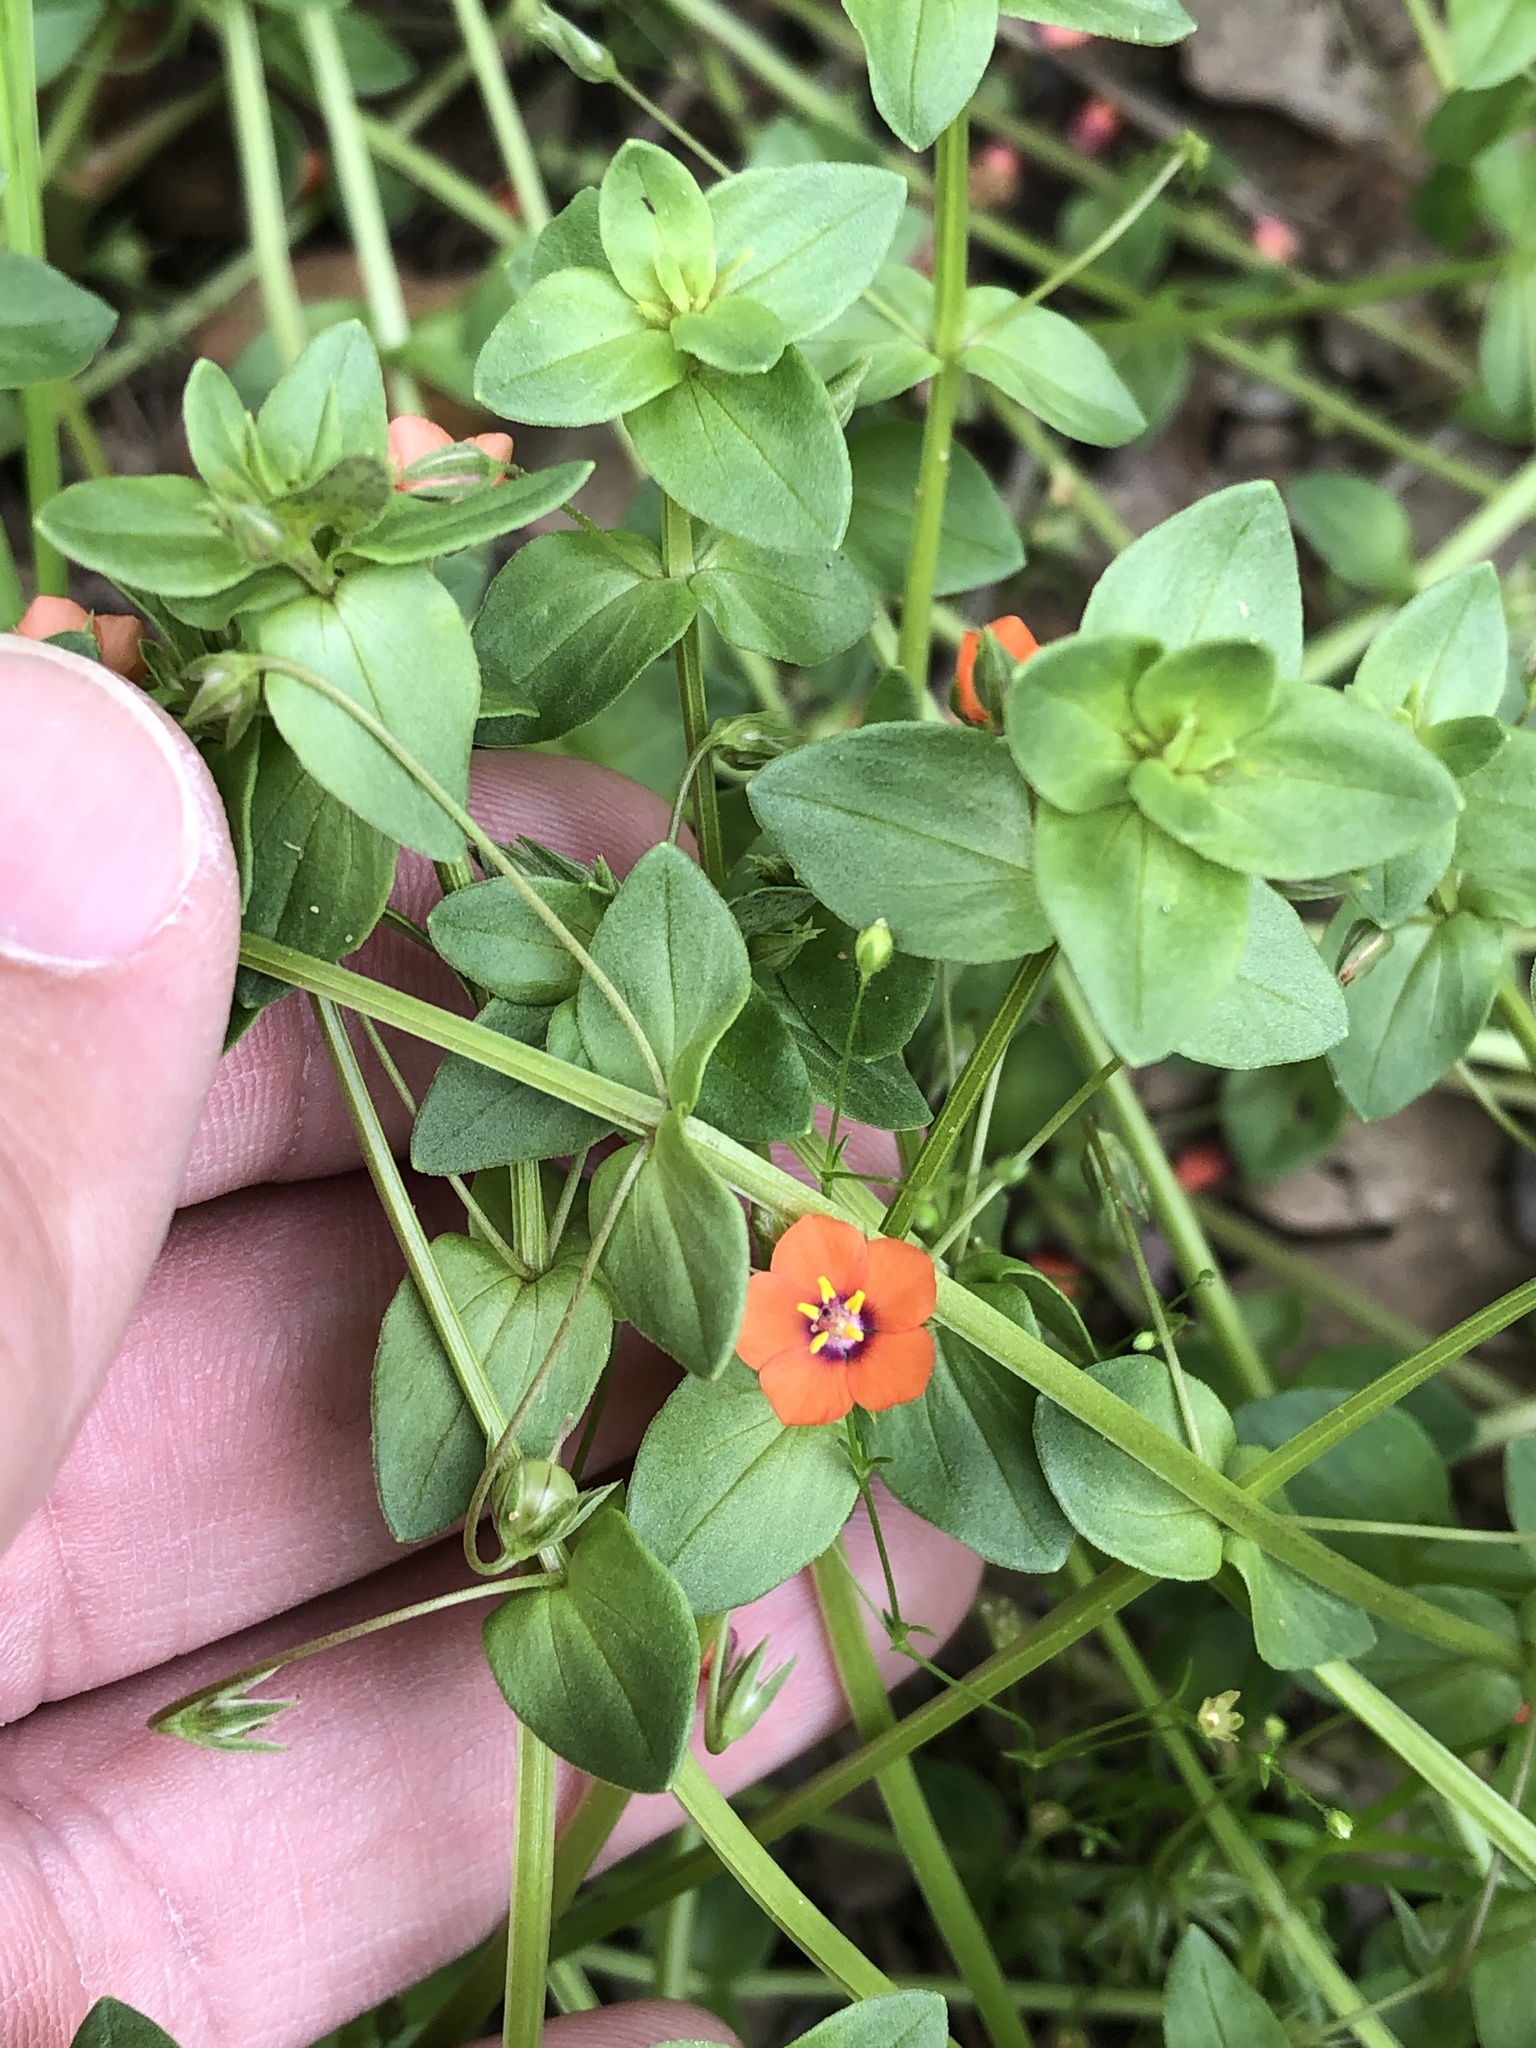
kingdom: Plantae
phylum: Tracheophyta
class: Magnoliopsida
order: Ericales
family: Primulaceae
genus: Lysimachia
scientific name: Lysimachia arvensis
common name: Scarlet pimpernel
